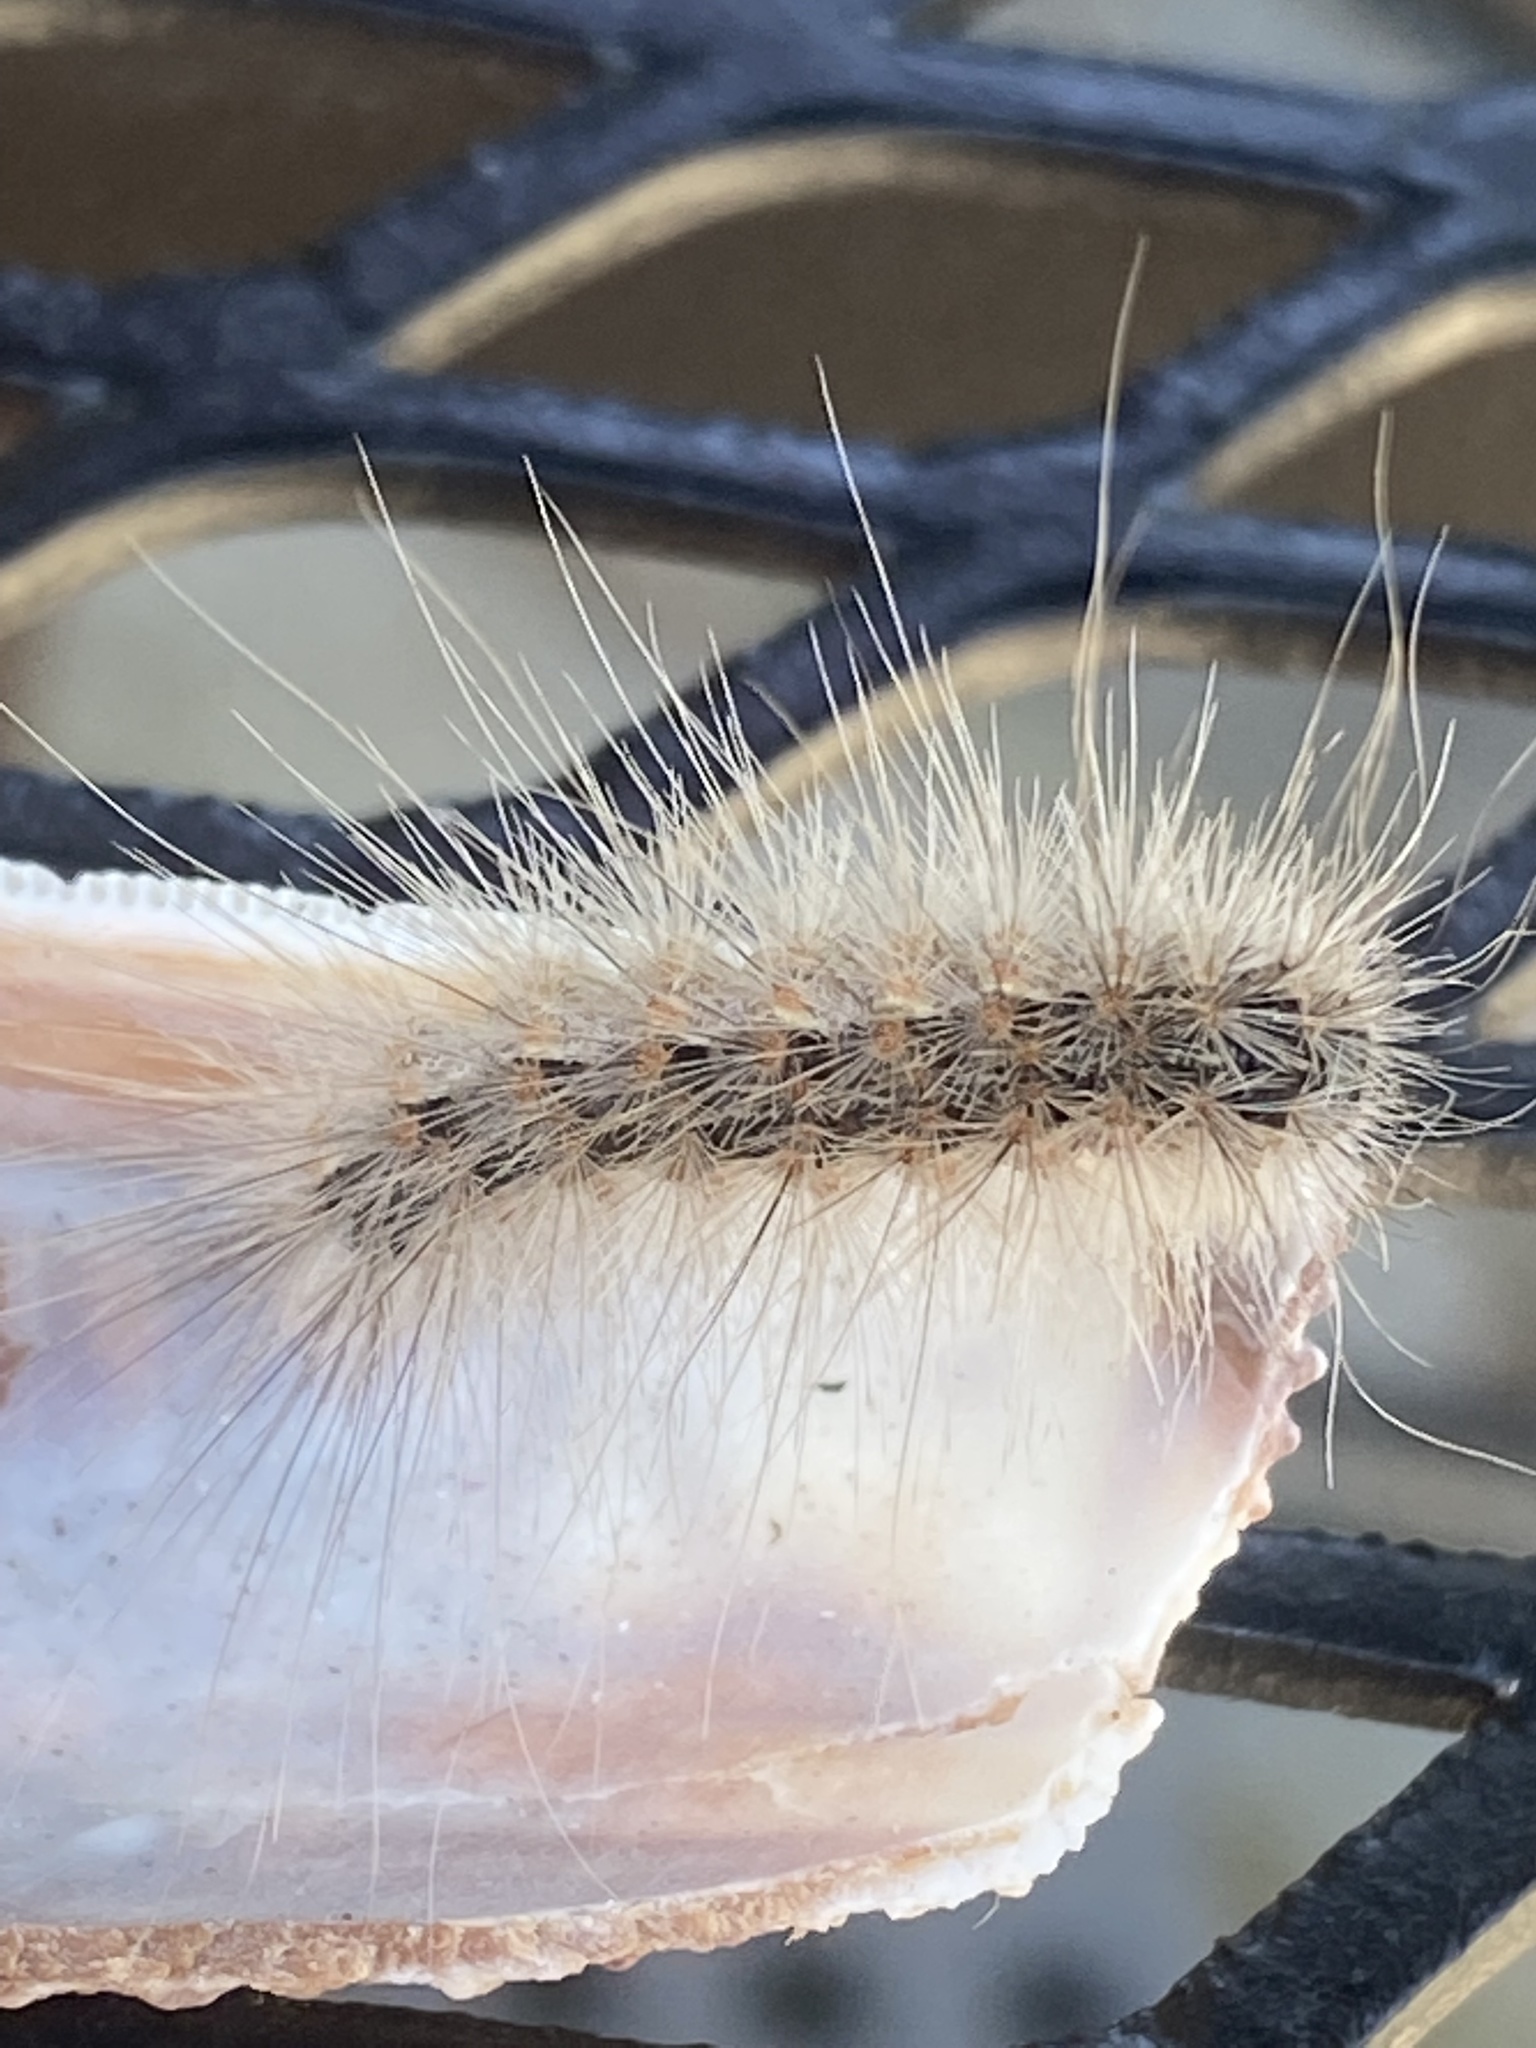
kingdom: Animalia
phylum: Arthropoda
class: Insecta
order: Lepidoptera
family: Erebidae
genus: Hyphantria
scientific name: Hyphantria cunea
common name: American white moth
